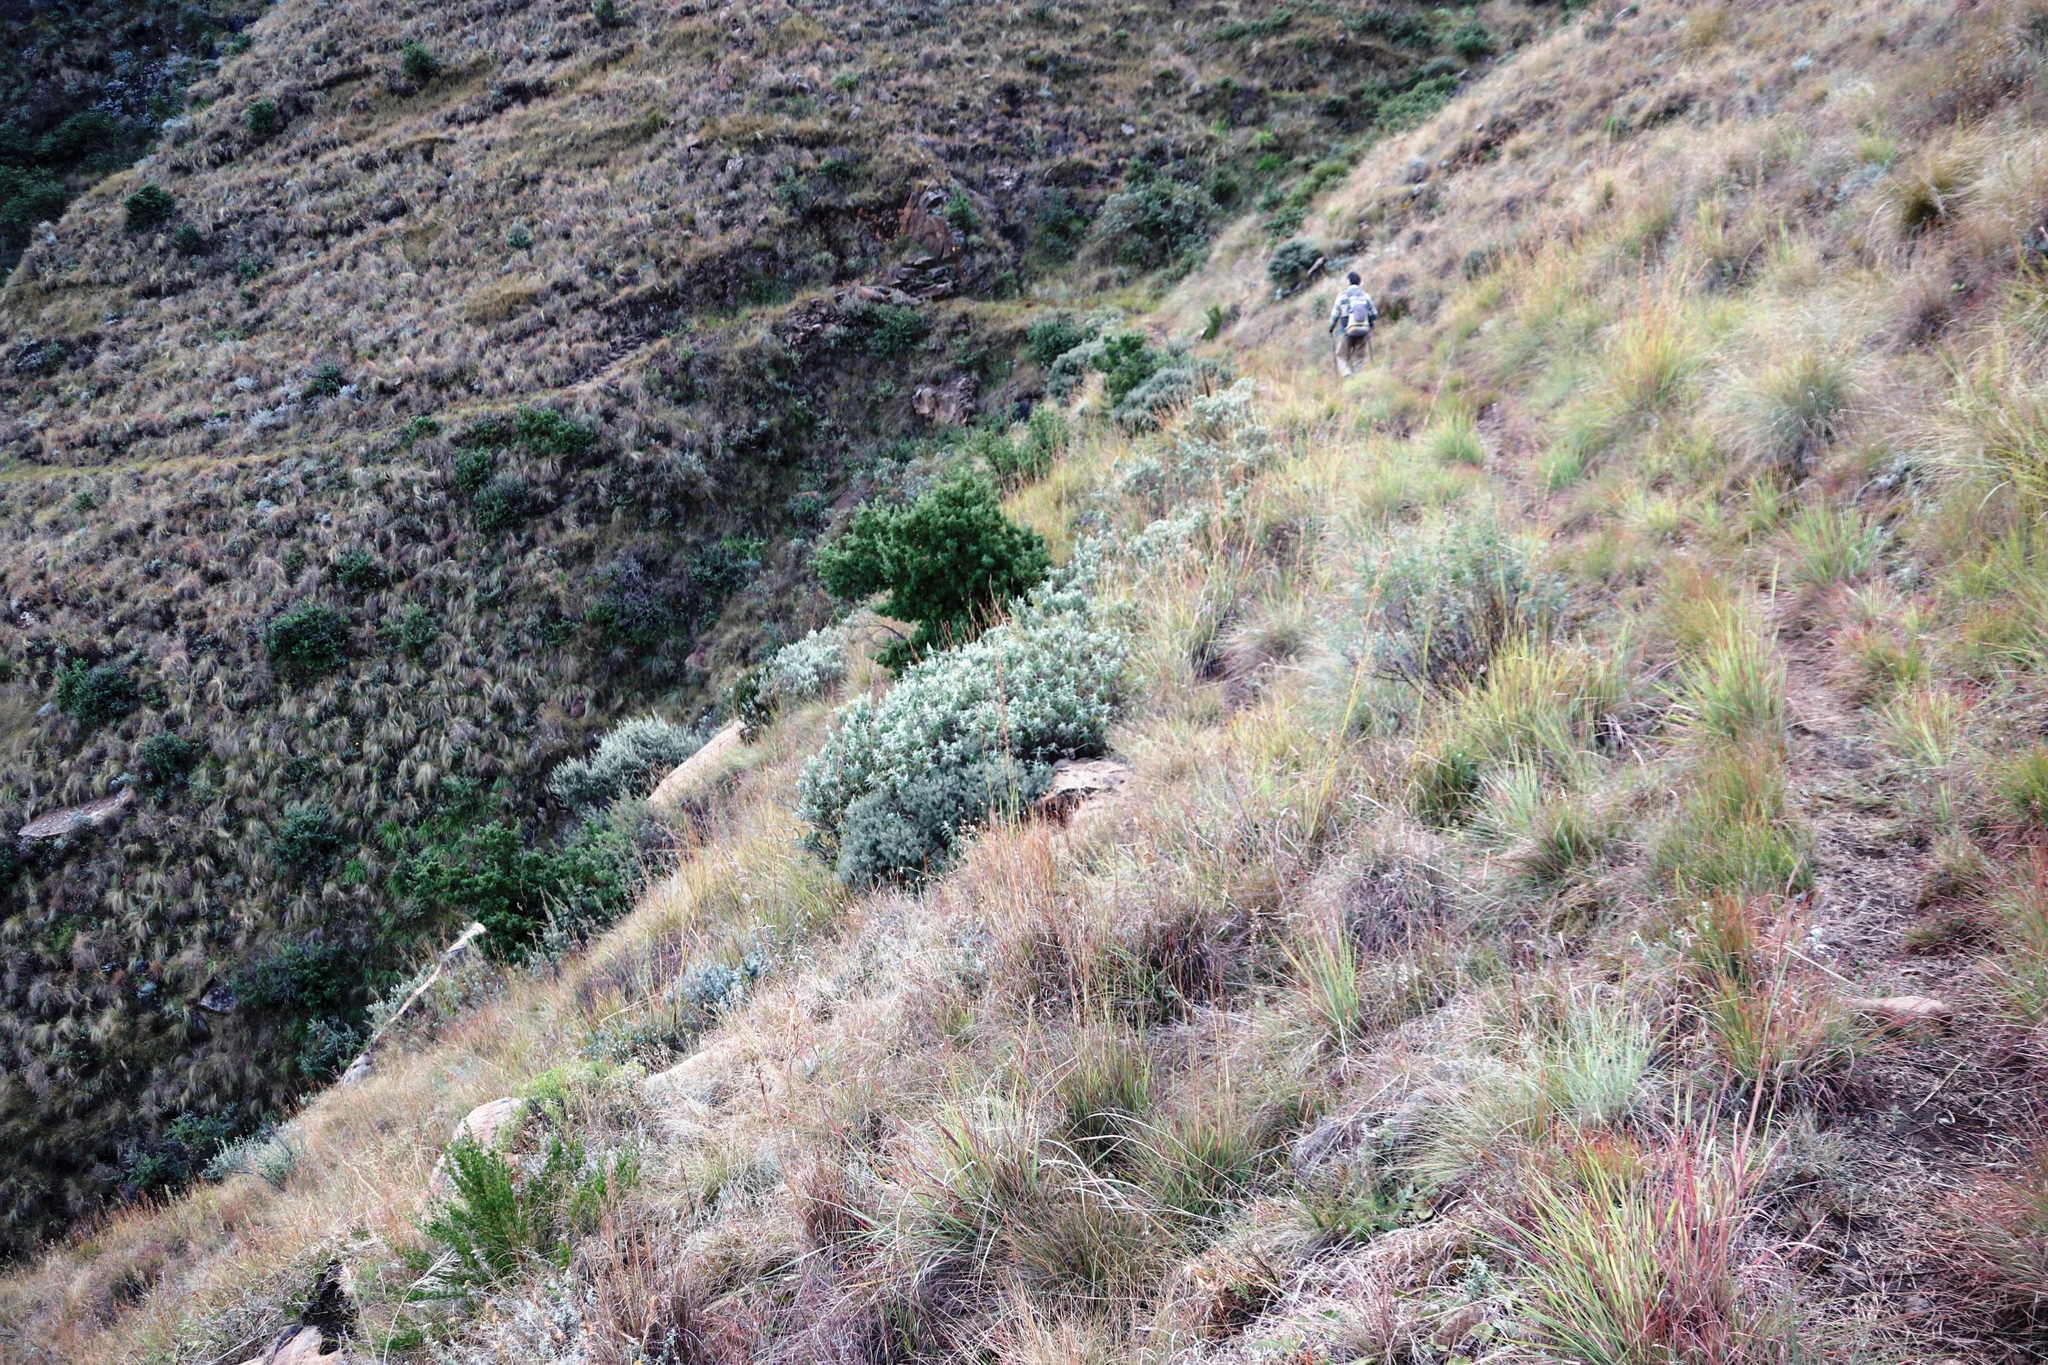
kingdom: Plantae
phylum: Tracheophyta
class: Magnoliopsida
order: Ericales
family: Ebenaceae
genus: Diospyros
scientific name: Diospyros pubescens
